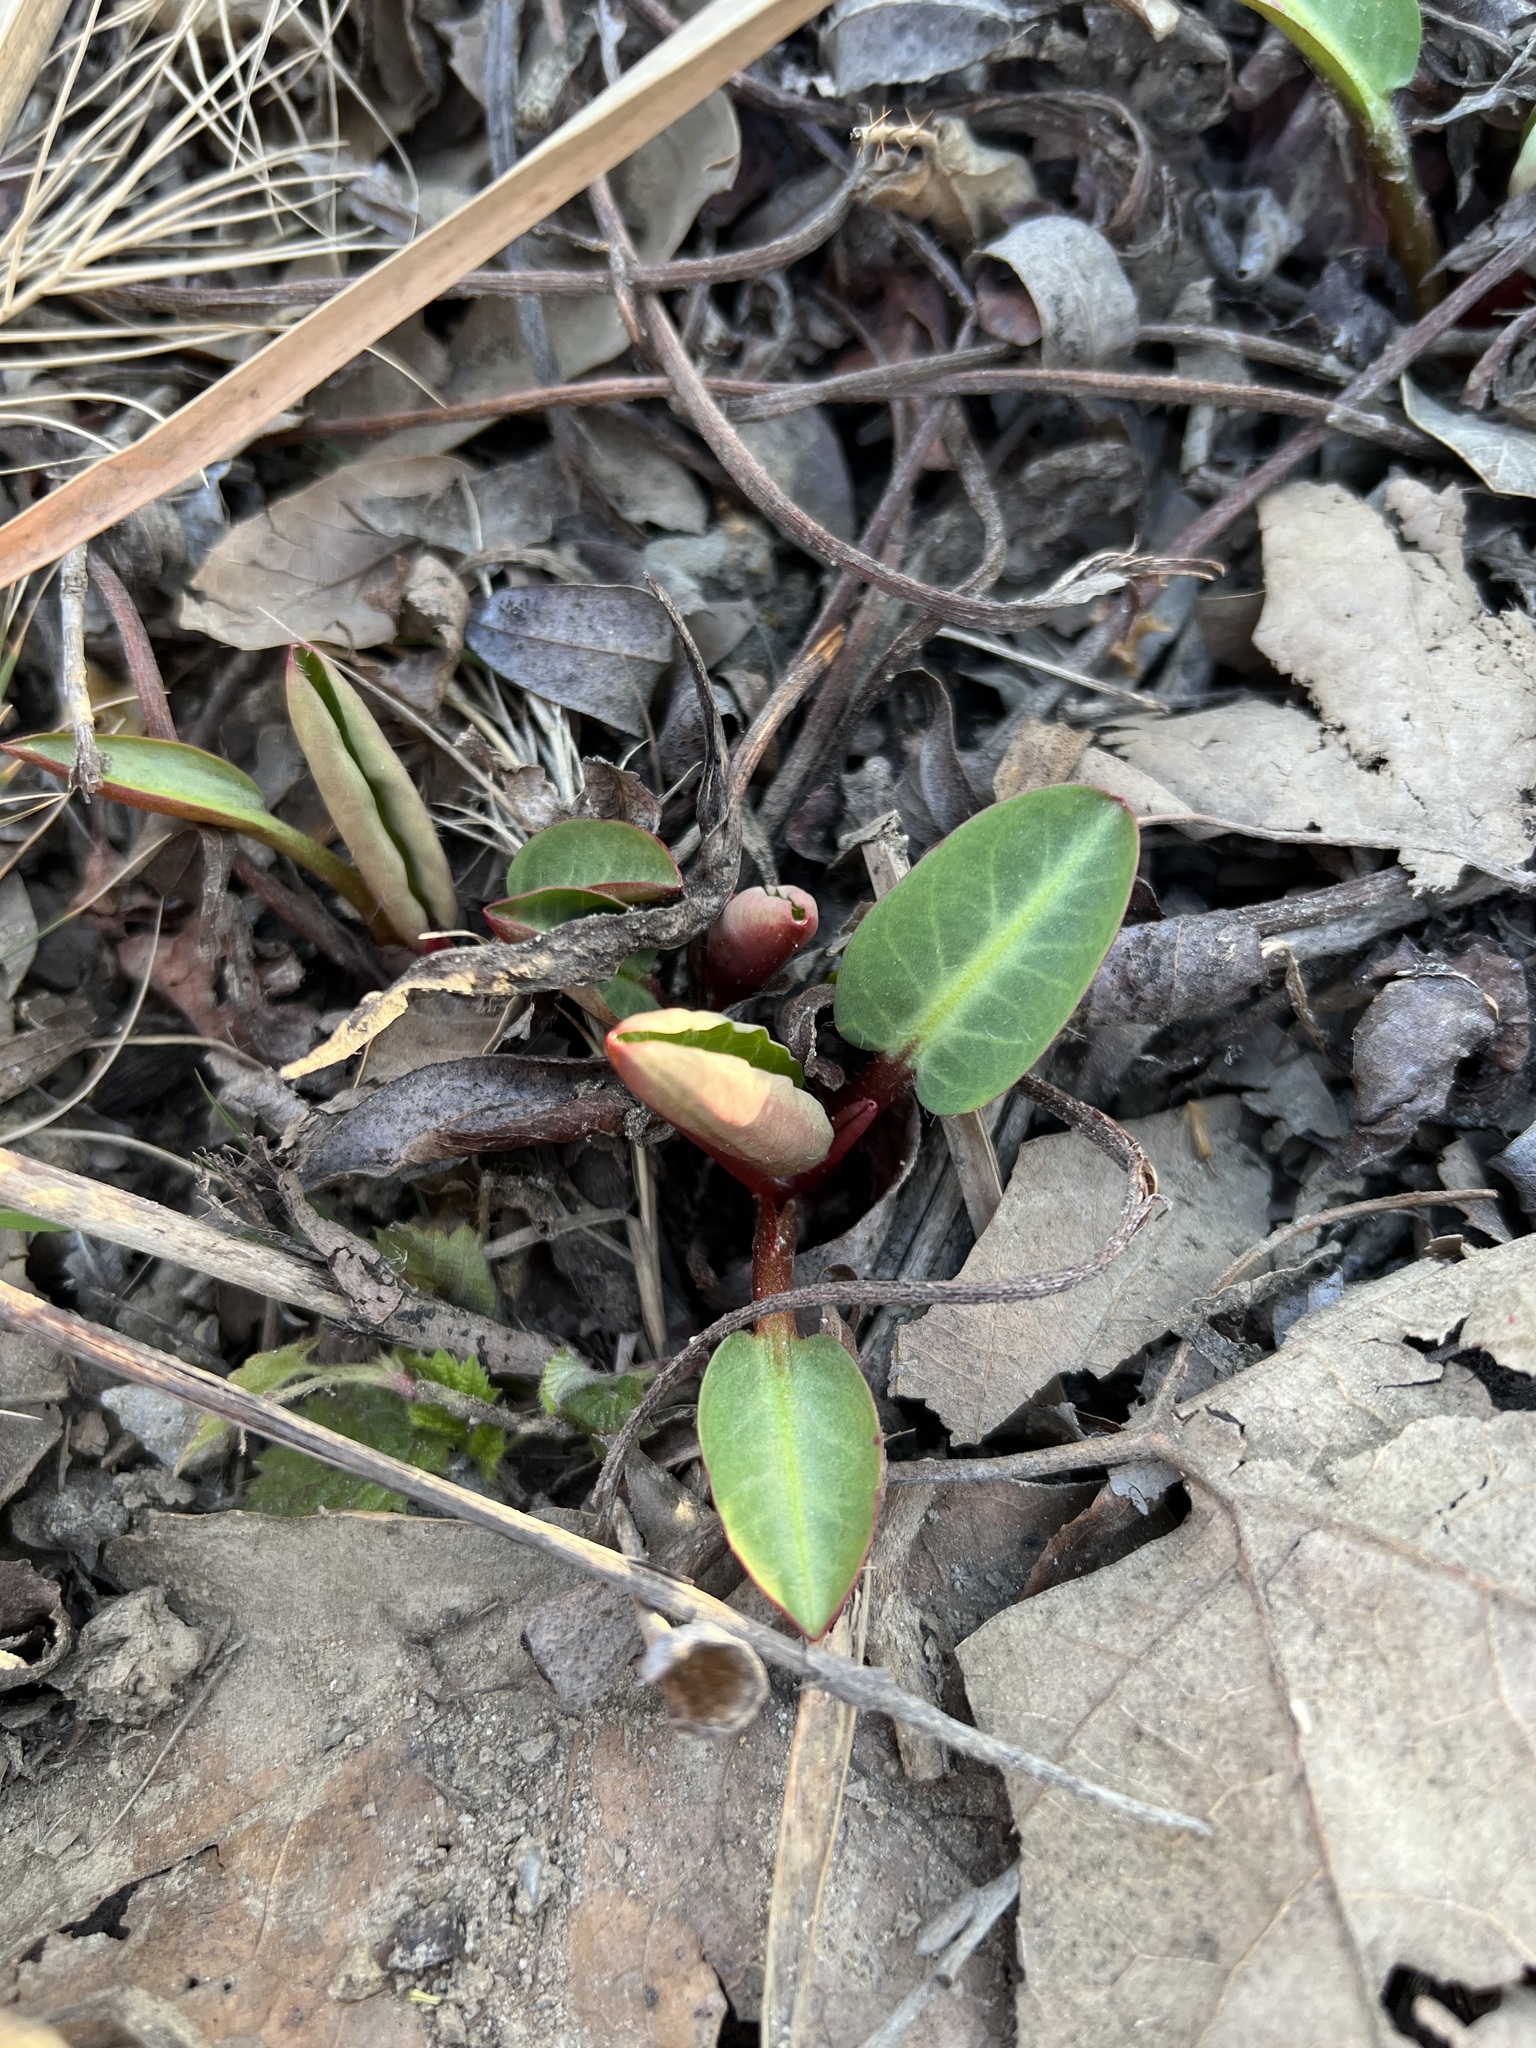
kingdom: Plantae
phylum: Tracheophyta
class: Magnoliopsida
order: Piperales
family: Saururaceae
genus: Anemopsis
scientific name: Anemopsis californica
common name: Apache-beads
